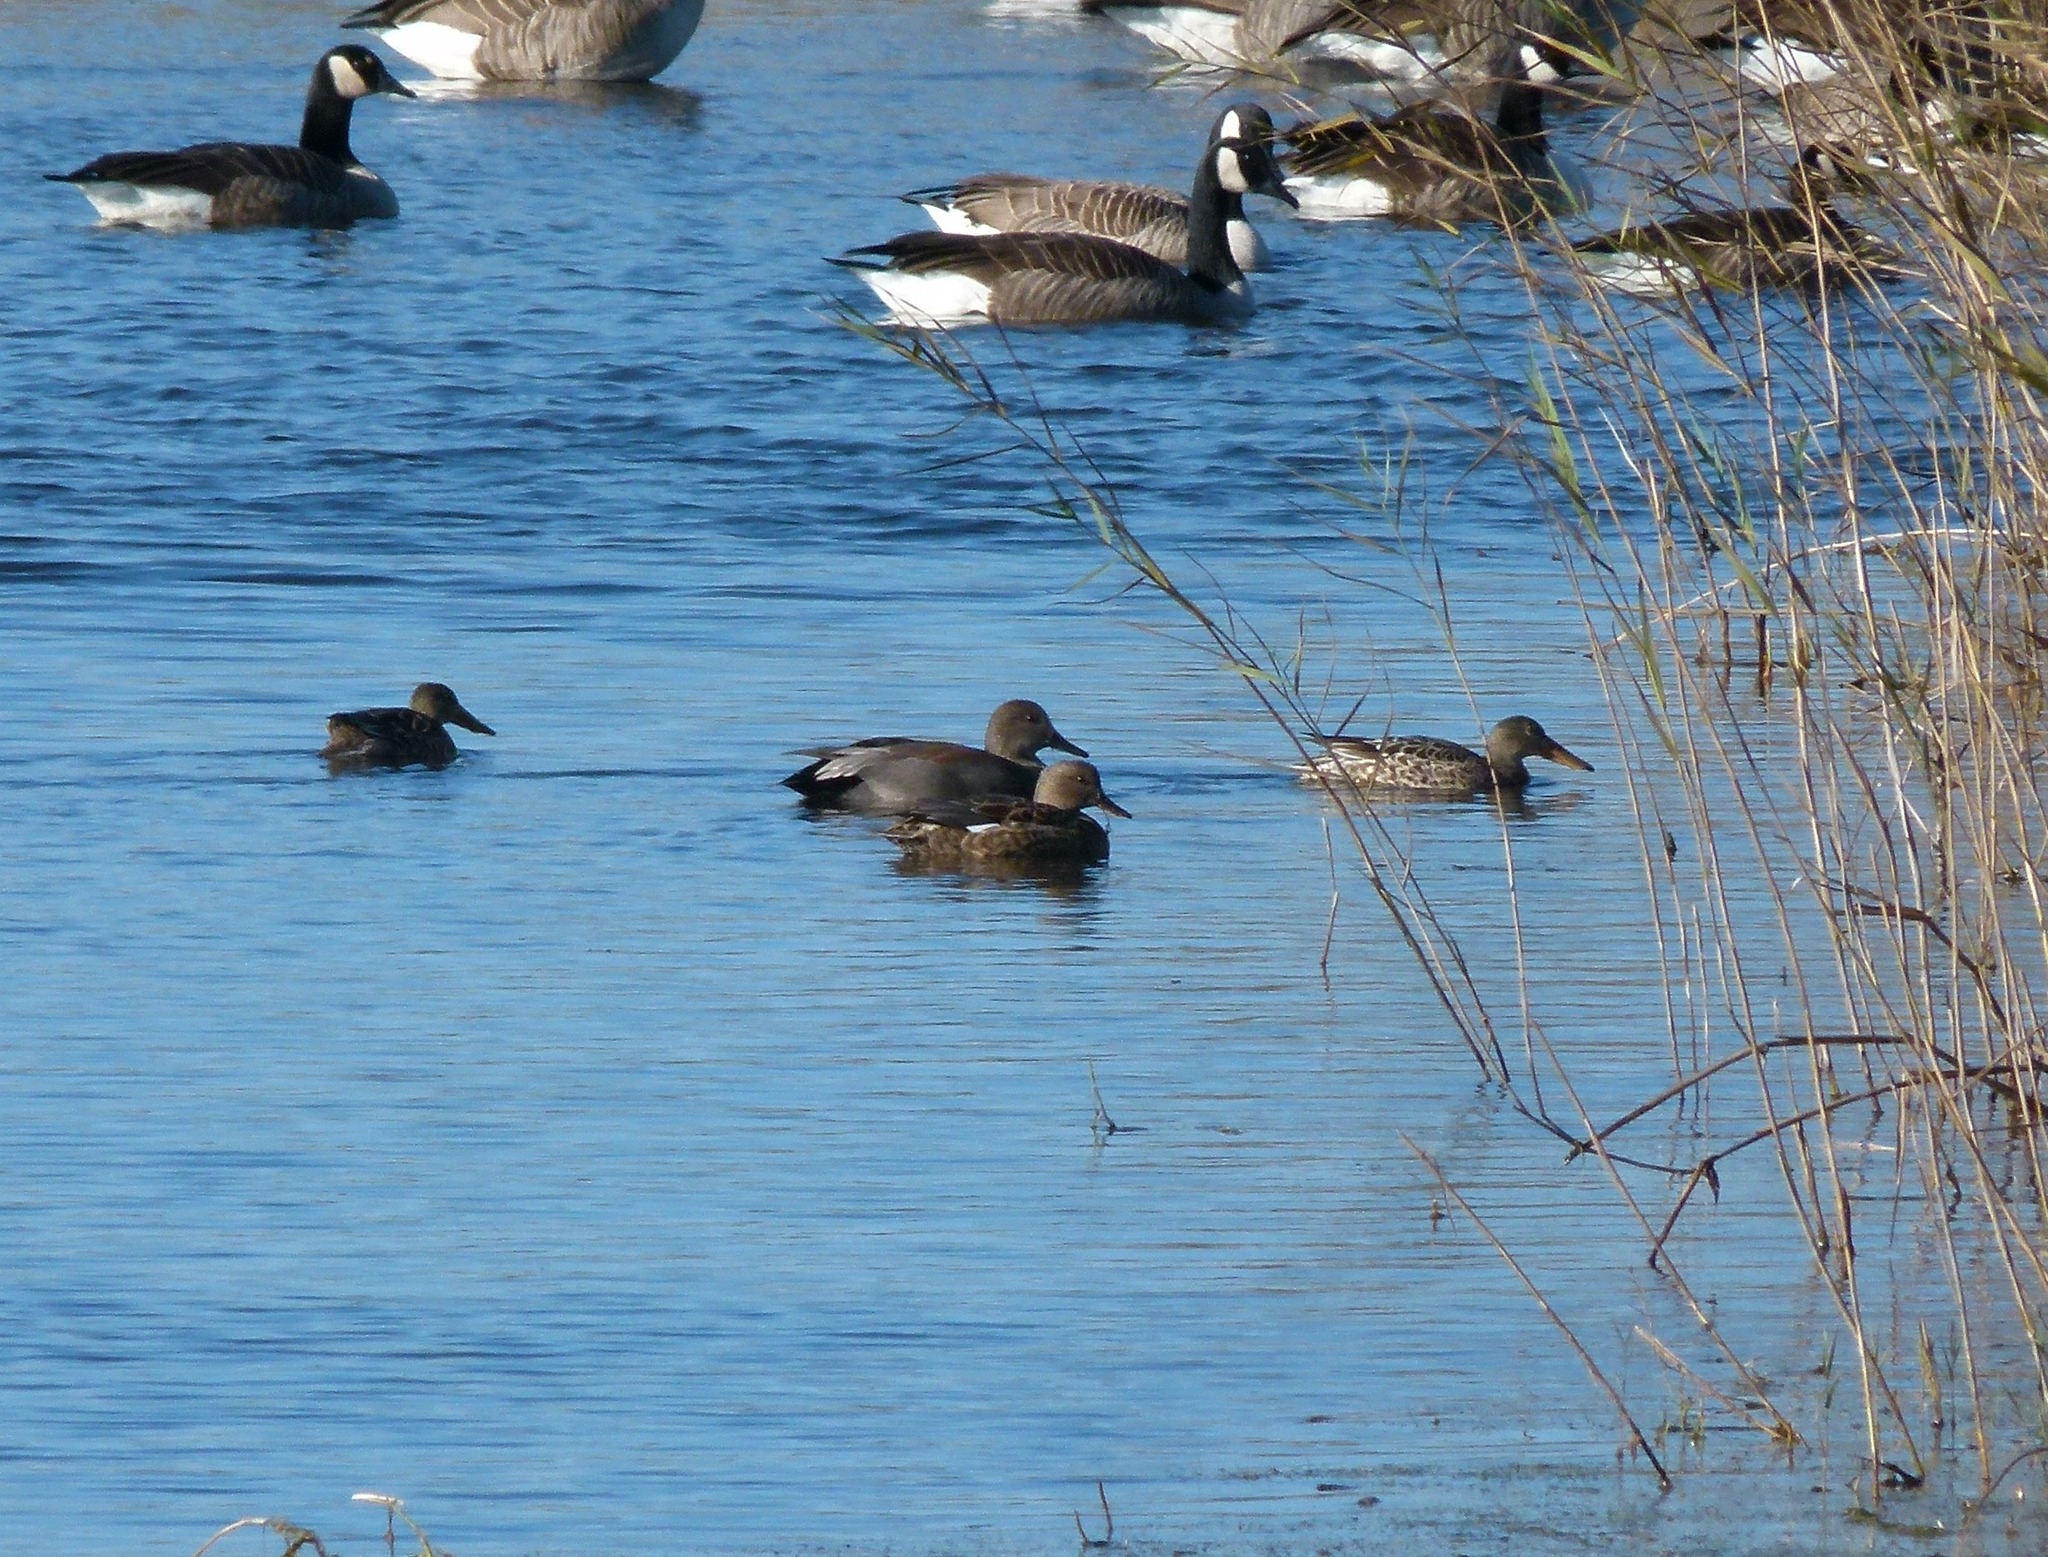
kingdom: Animalia
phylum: Chordata
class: Aves
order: Anseriformes
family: Anatidae
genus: Mareca
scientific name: Mareca strepera
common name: Gadwall
